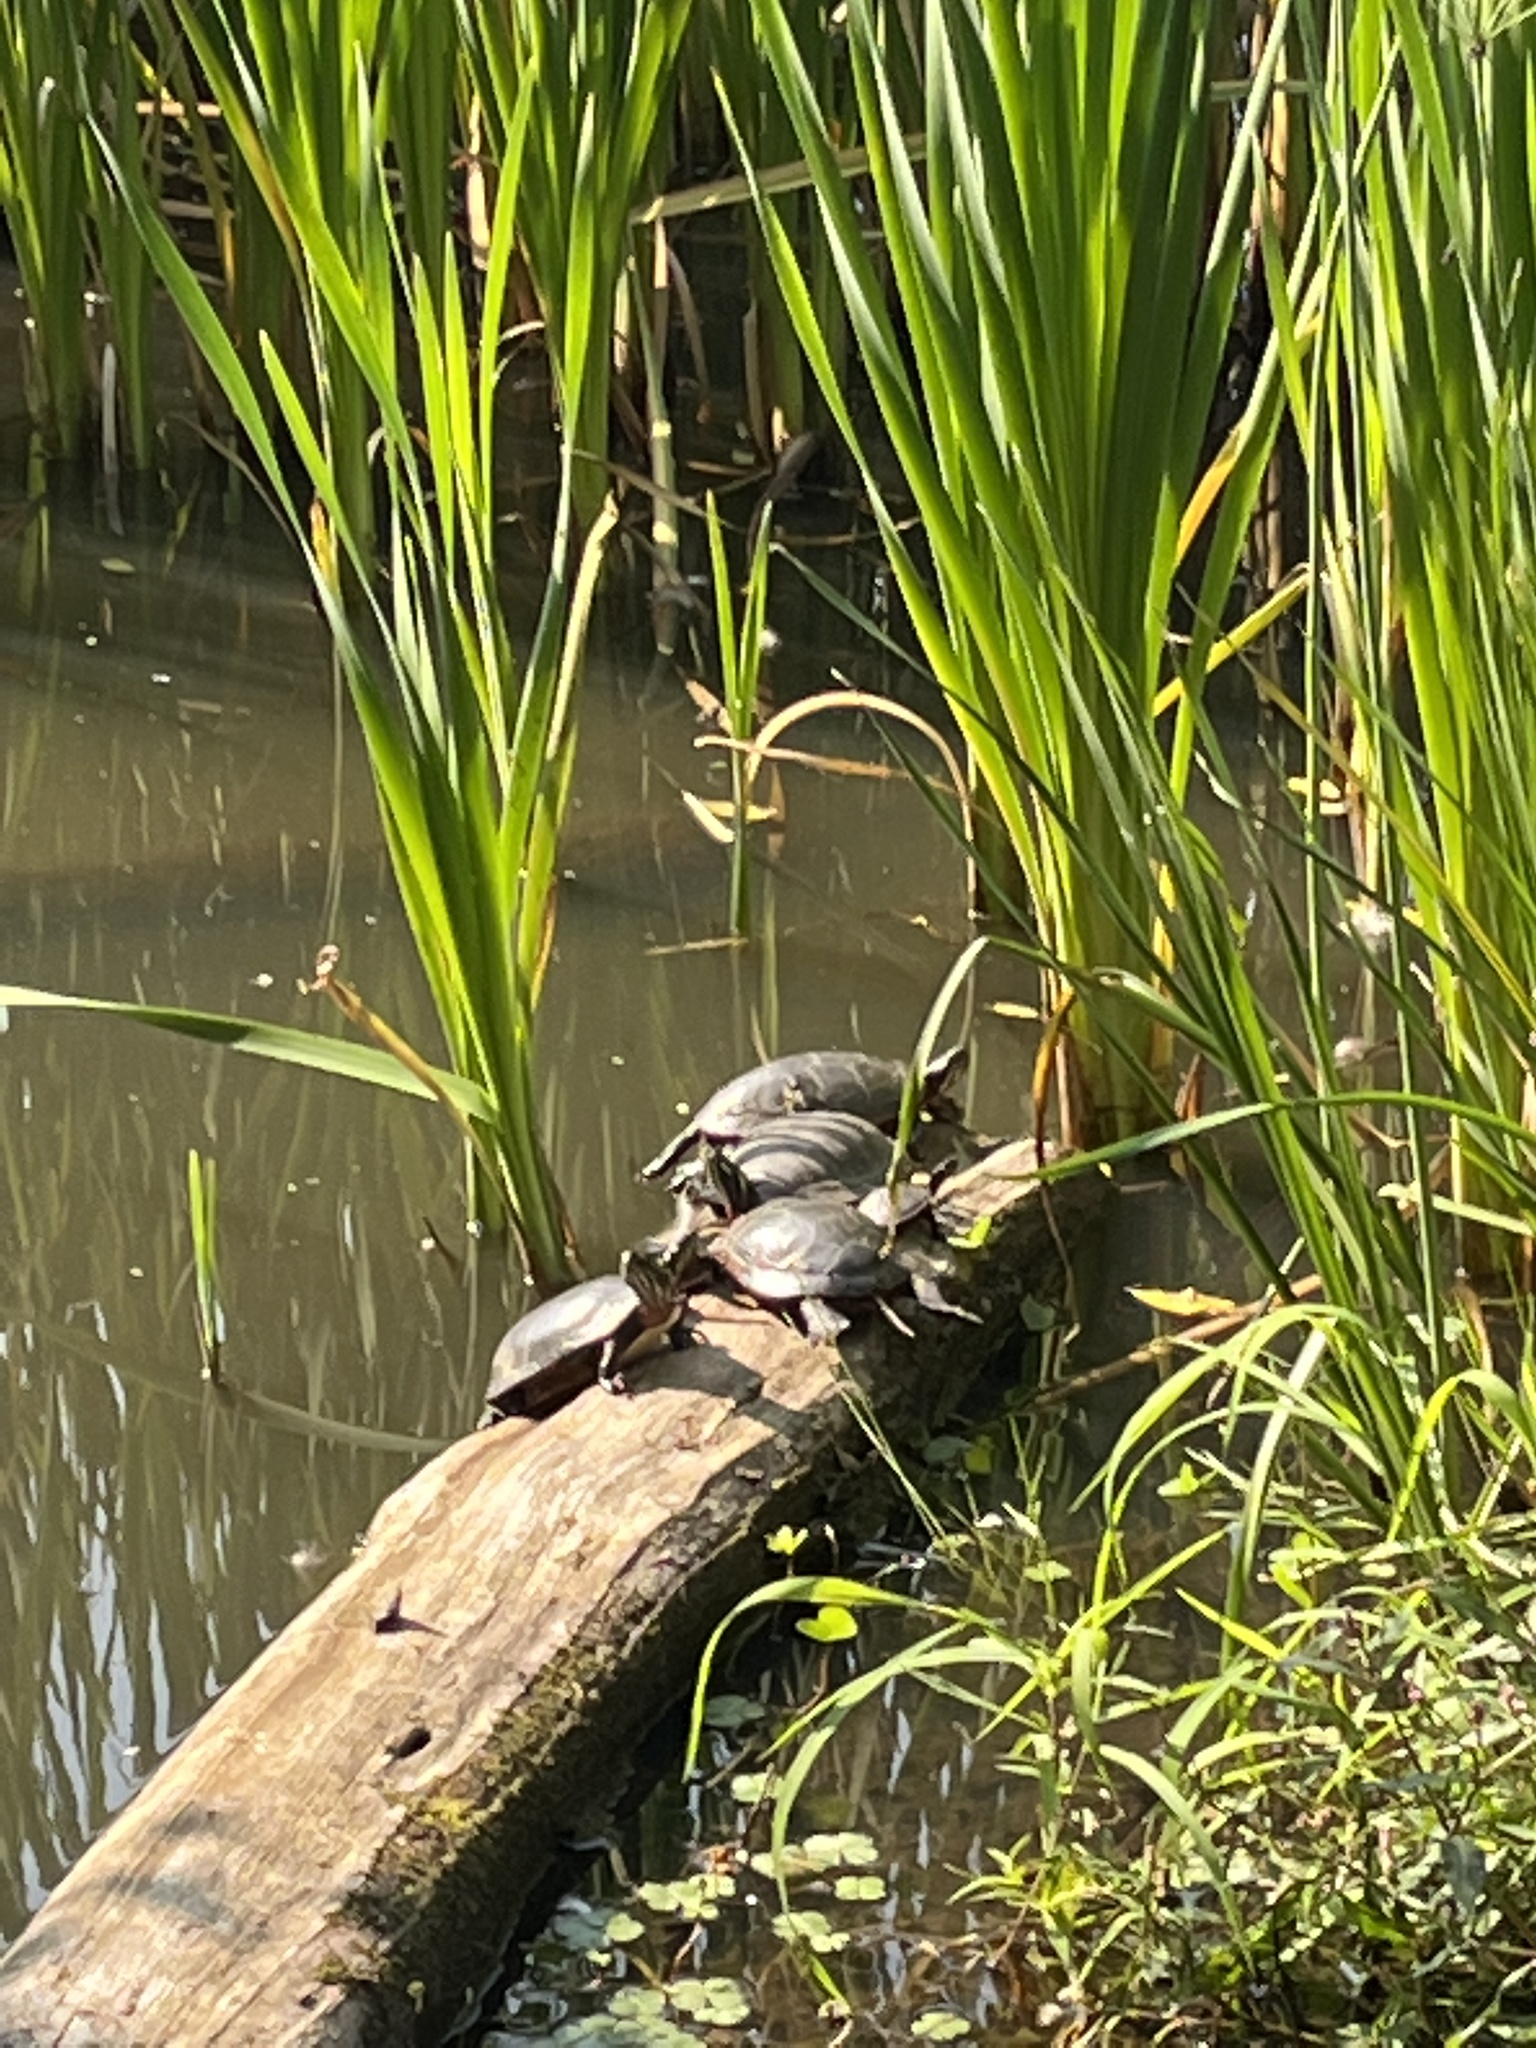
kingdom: Animalia
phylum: Chordata
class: Testudines
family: Emydidae
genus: Chrysemys
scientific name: Chrysemys picta
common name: Painted turtle
